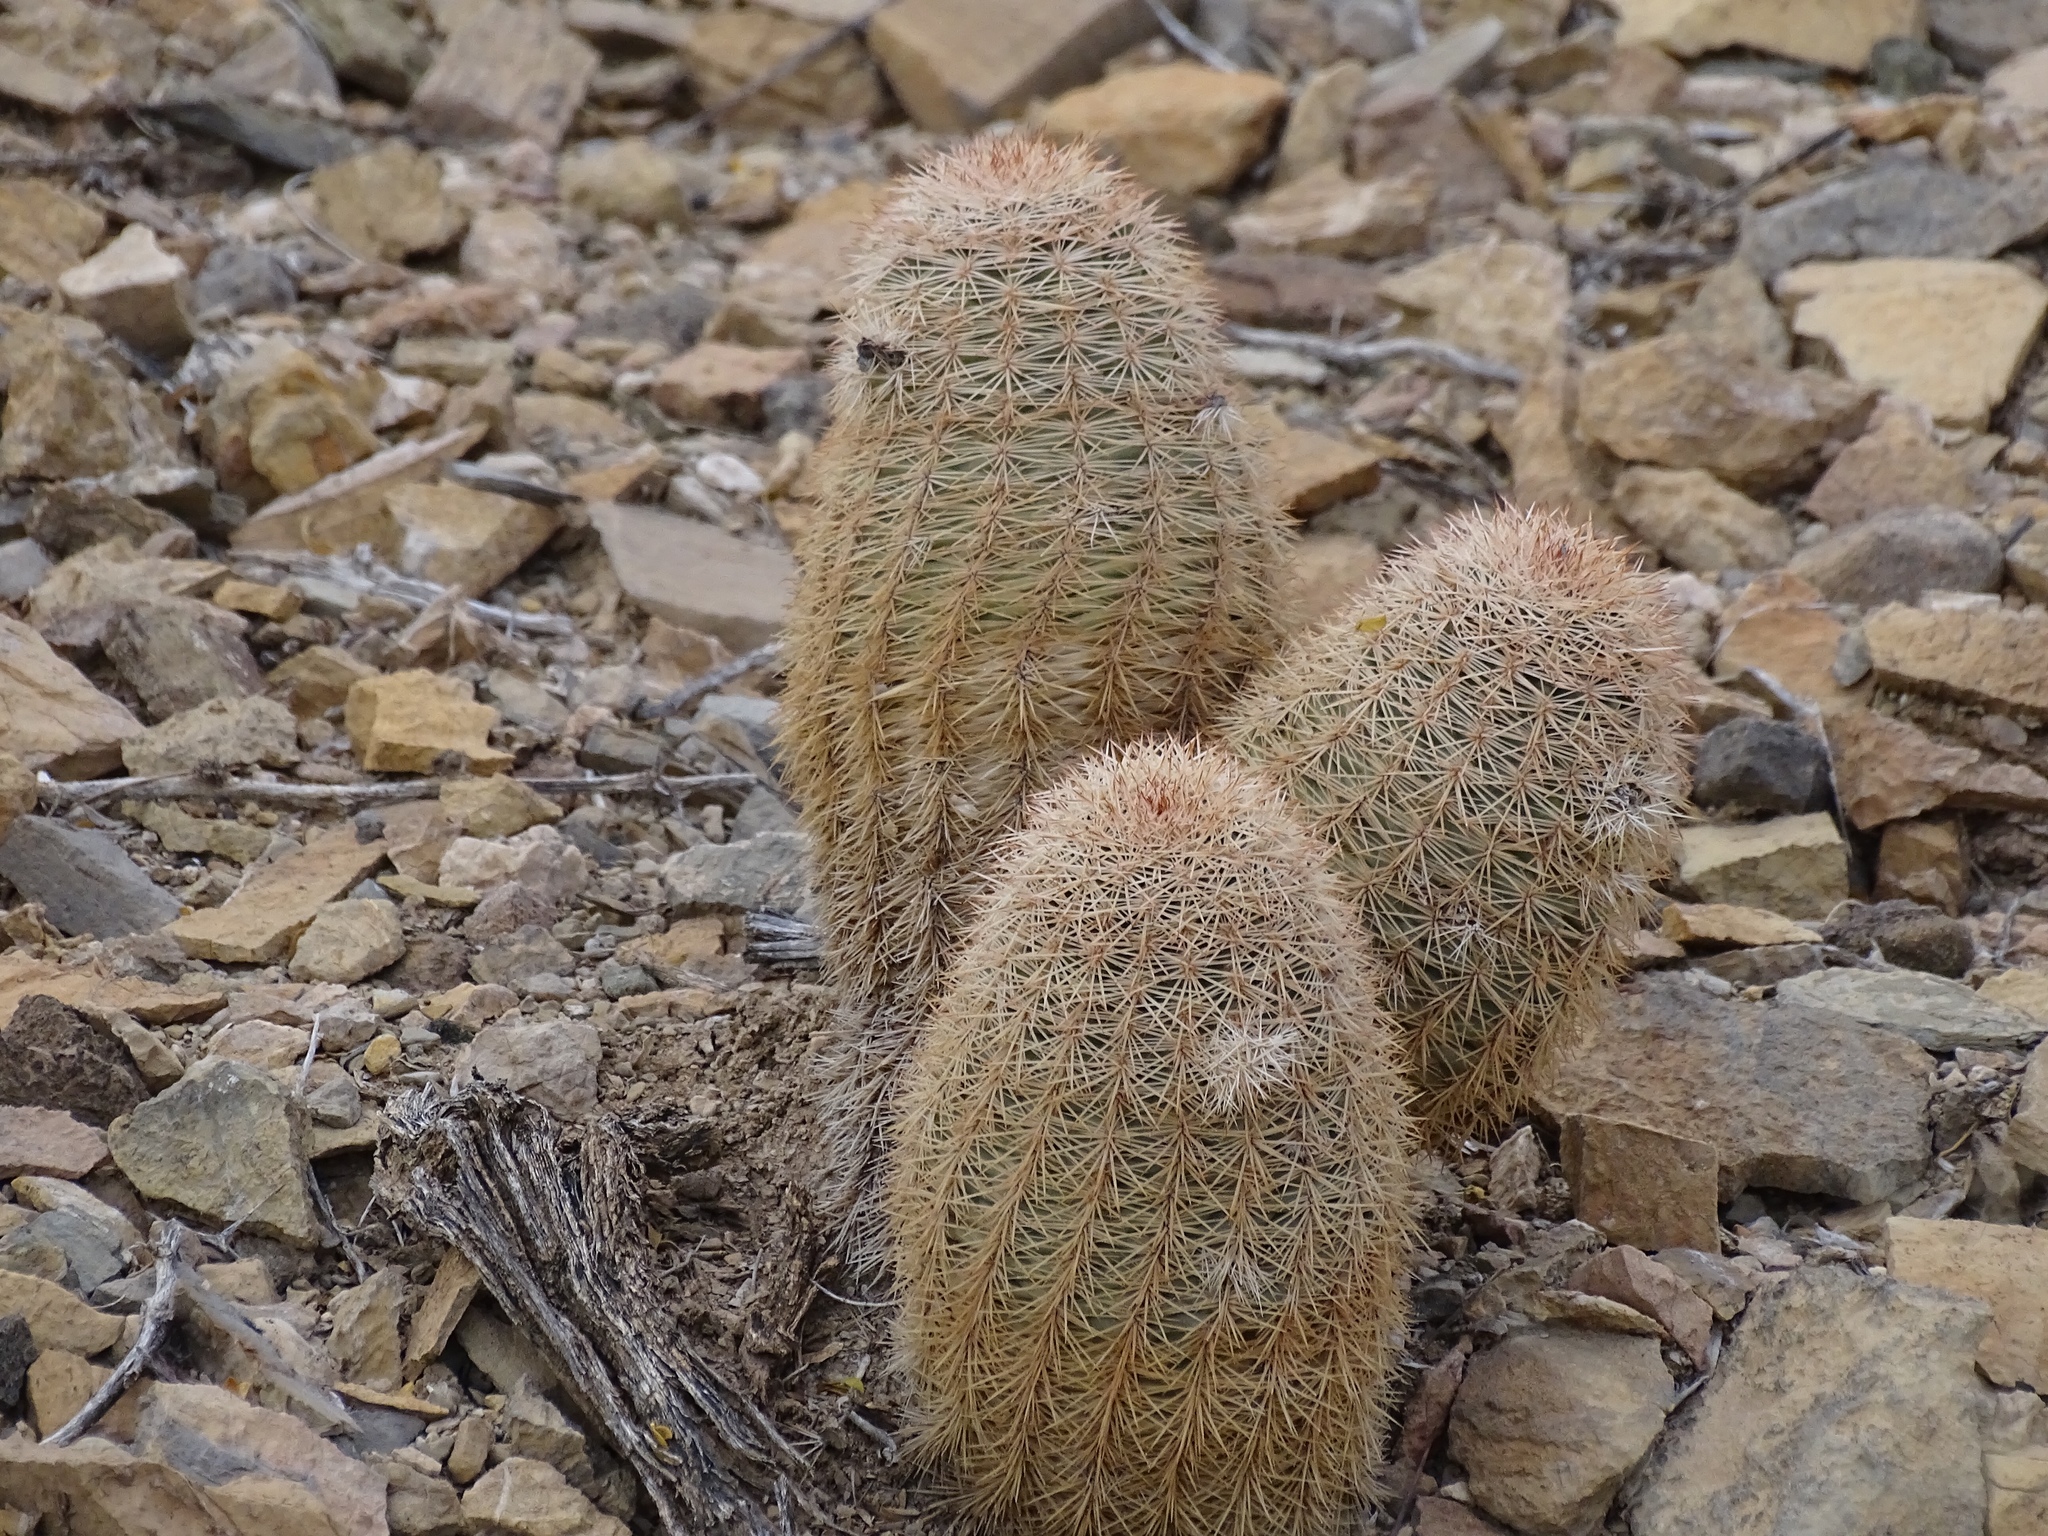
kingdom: Plantae
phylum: Tracheophyta
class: Magnoliopsida
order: Caryophyllales
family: Cactaceae
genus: Echinocereus
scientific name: Echinocereus dasyacanthus
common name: Spiny hedgehog cactus
